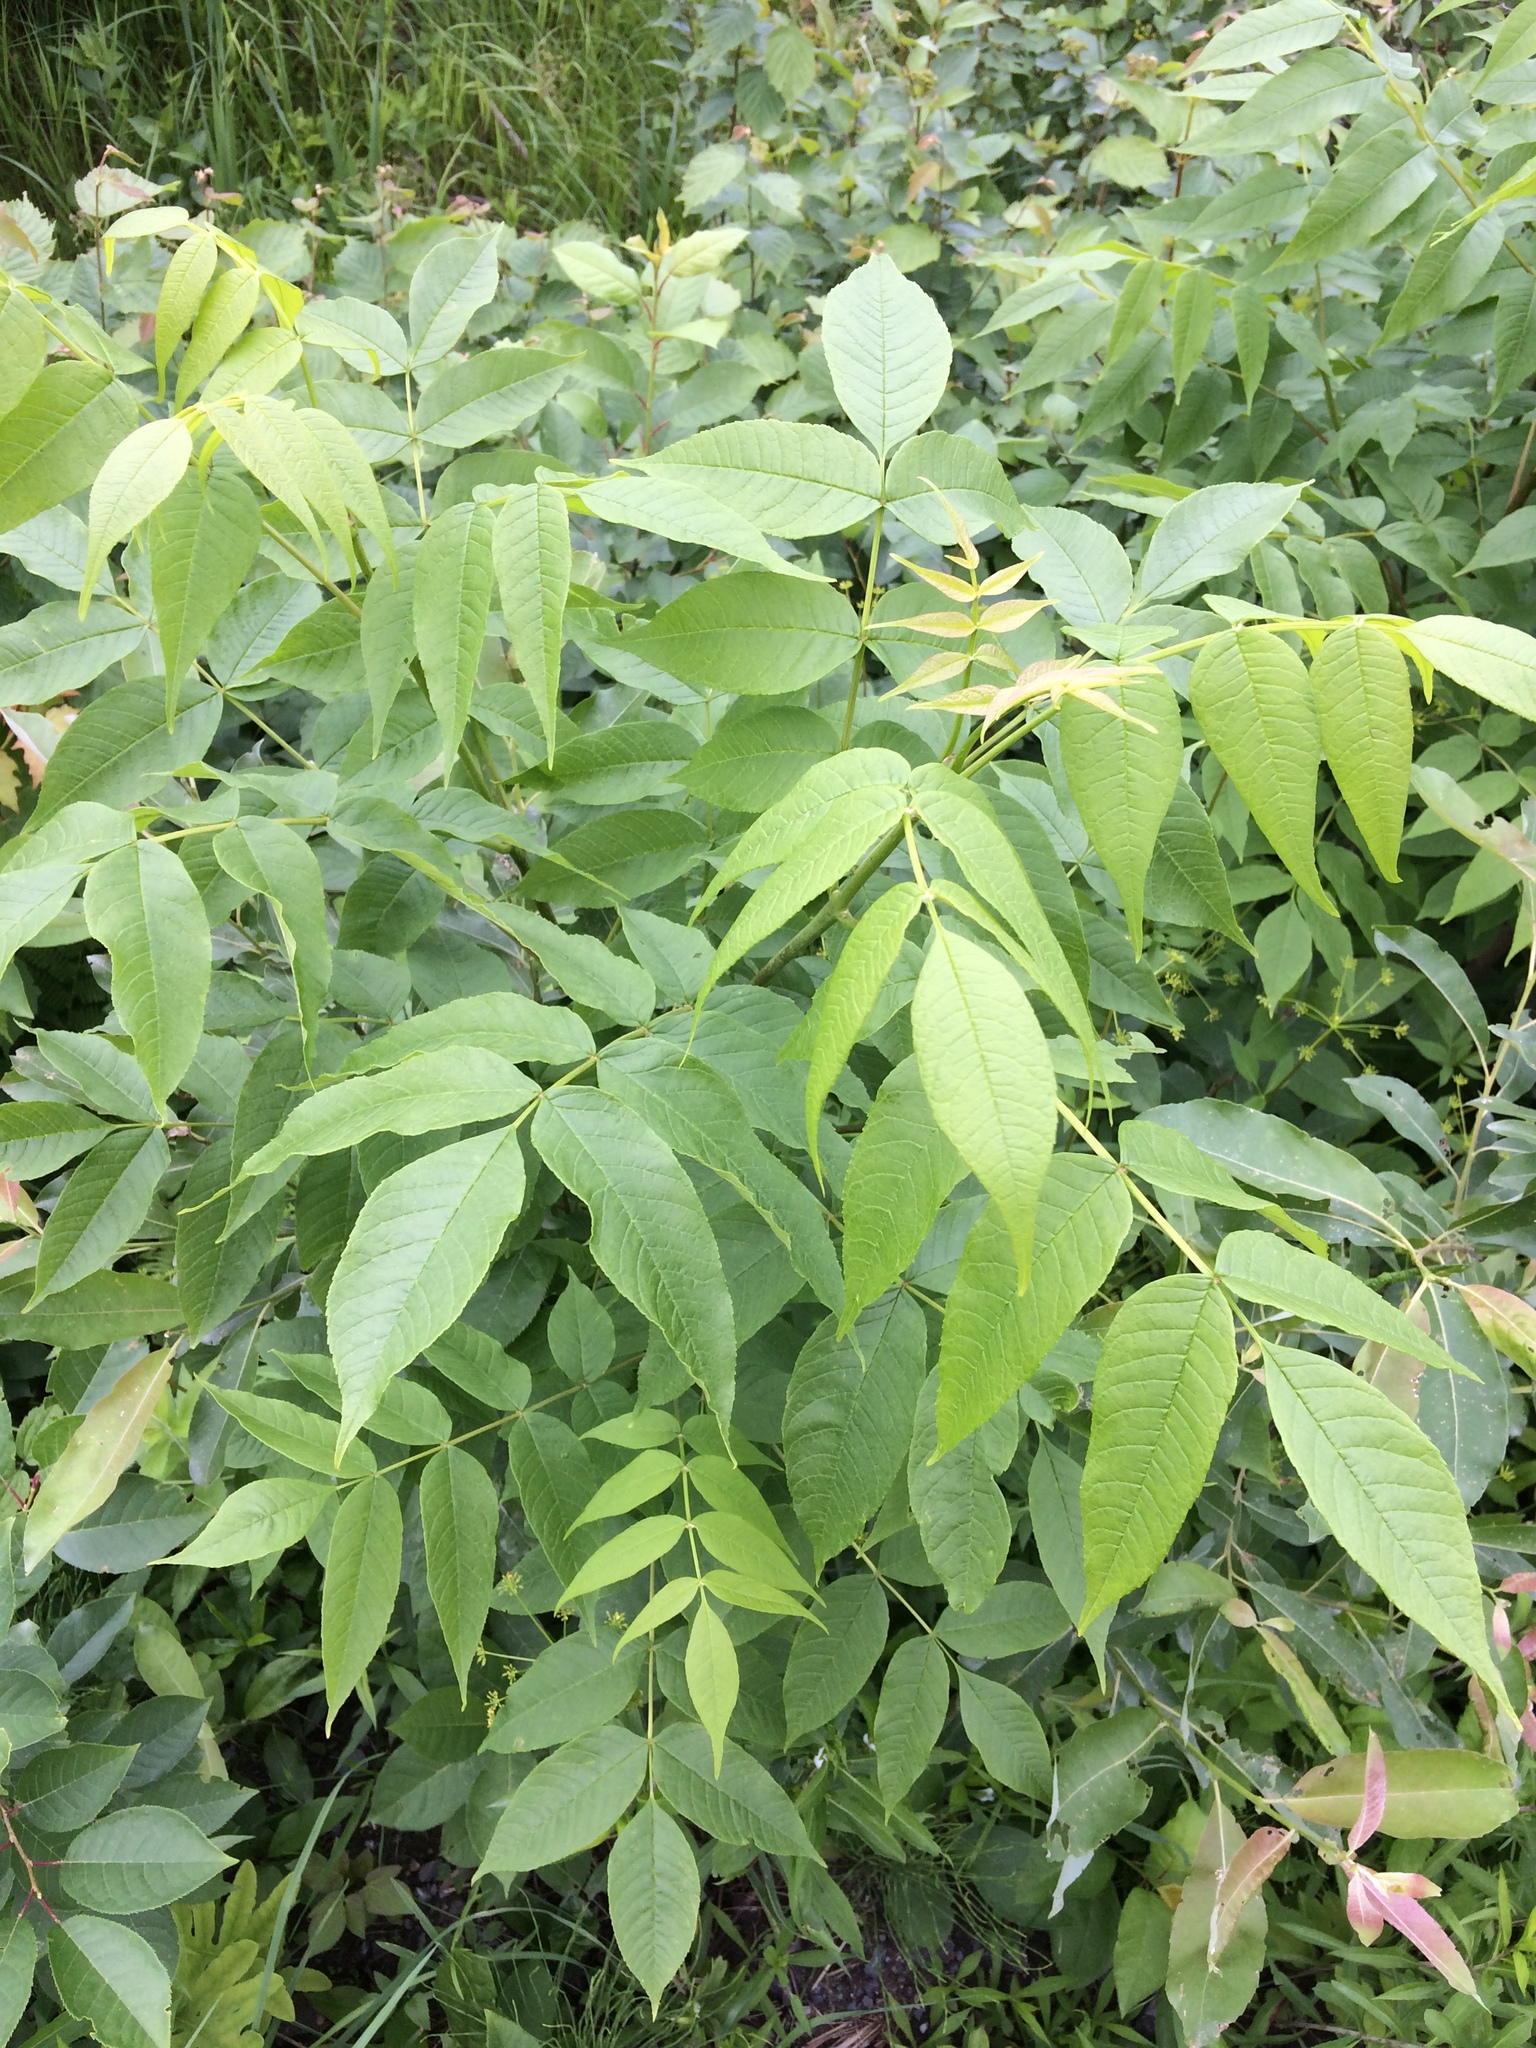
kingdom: Plantae
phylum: Tracheophyta
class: Magnoliopsida
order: Lamiales
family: Oleaceae
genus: Fraxinus
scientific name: Fraxinus nigra
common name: Black ash
